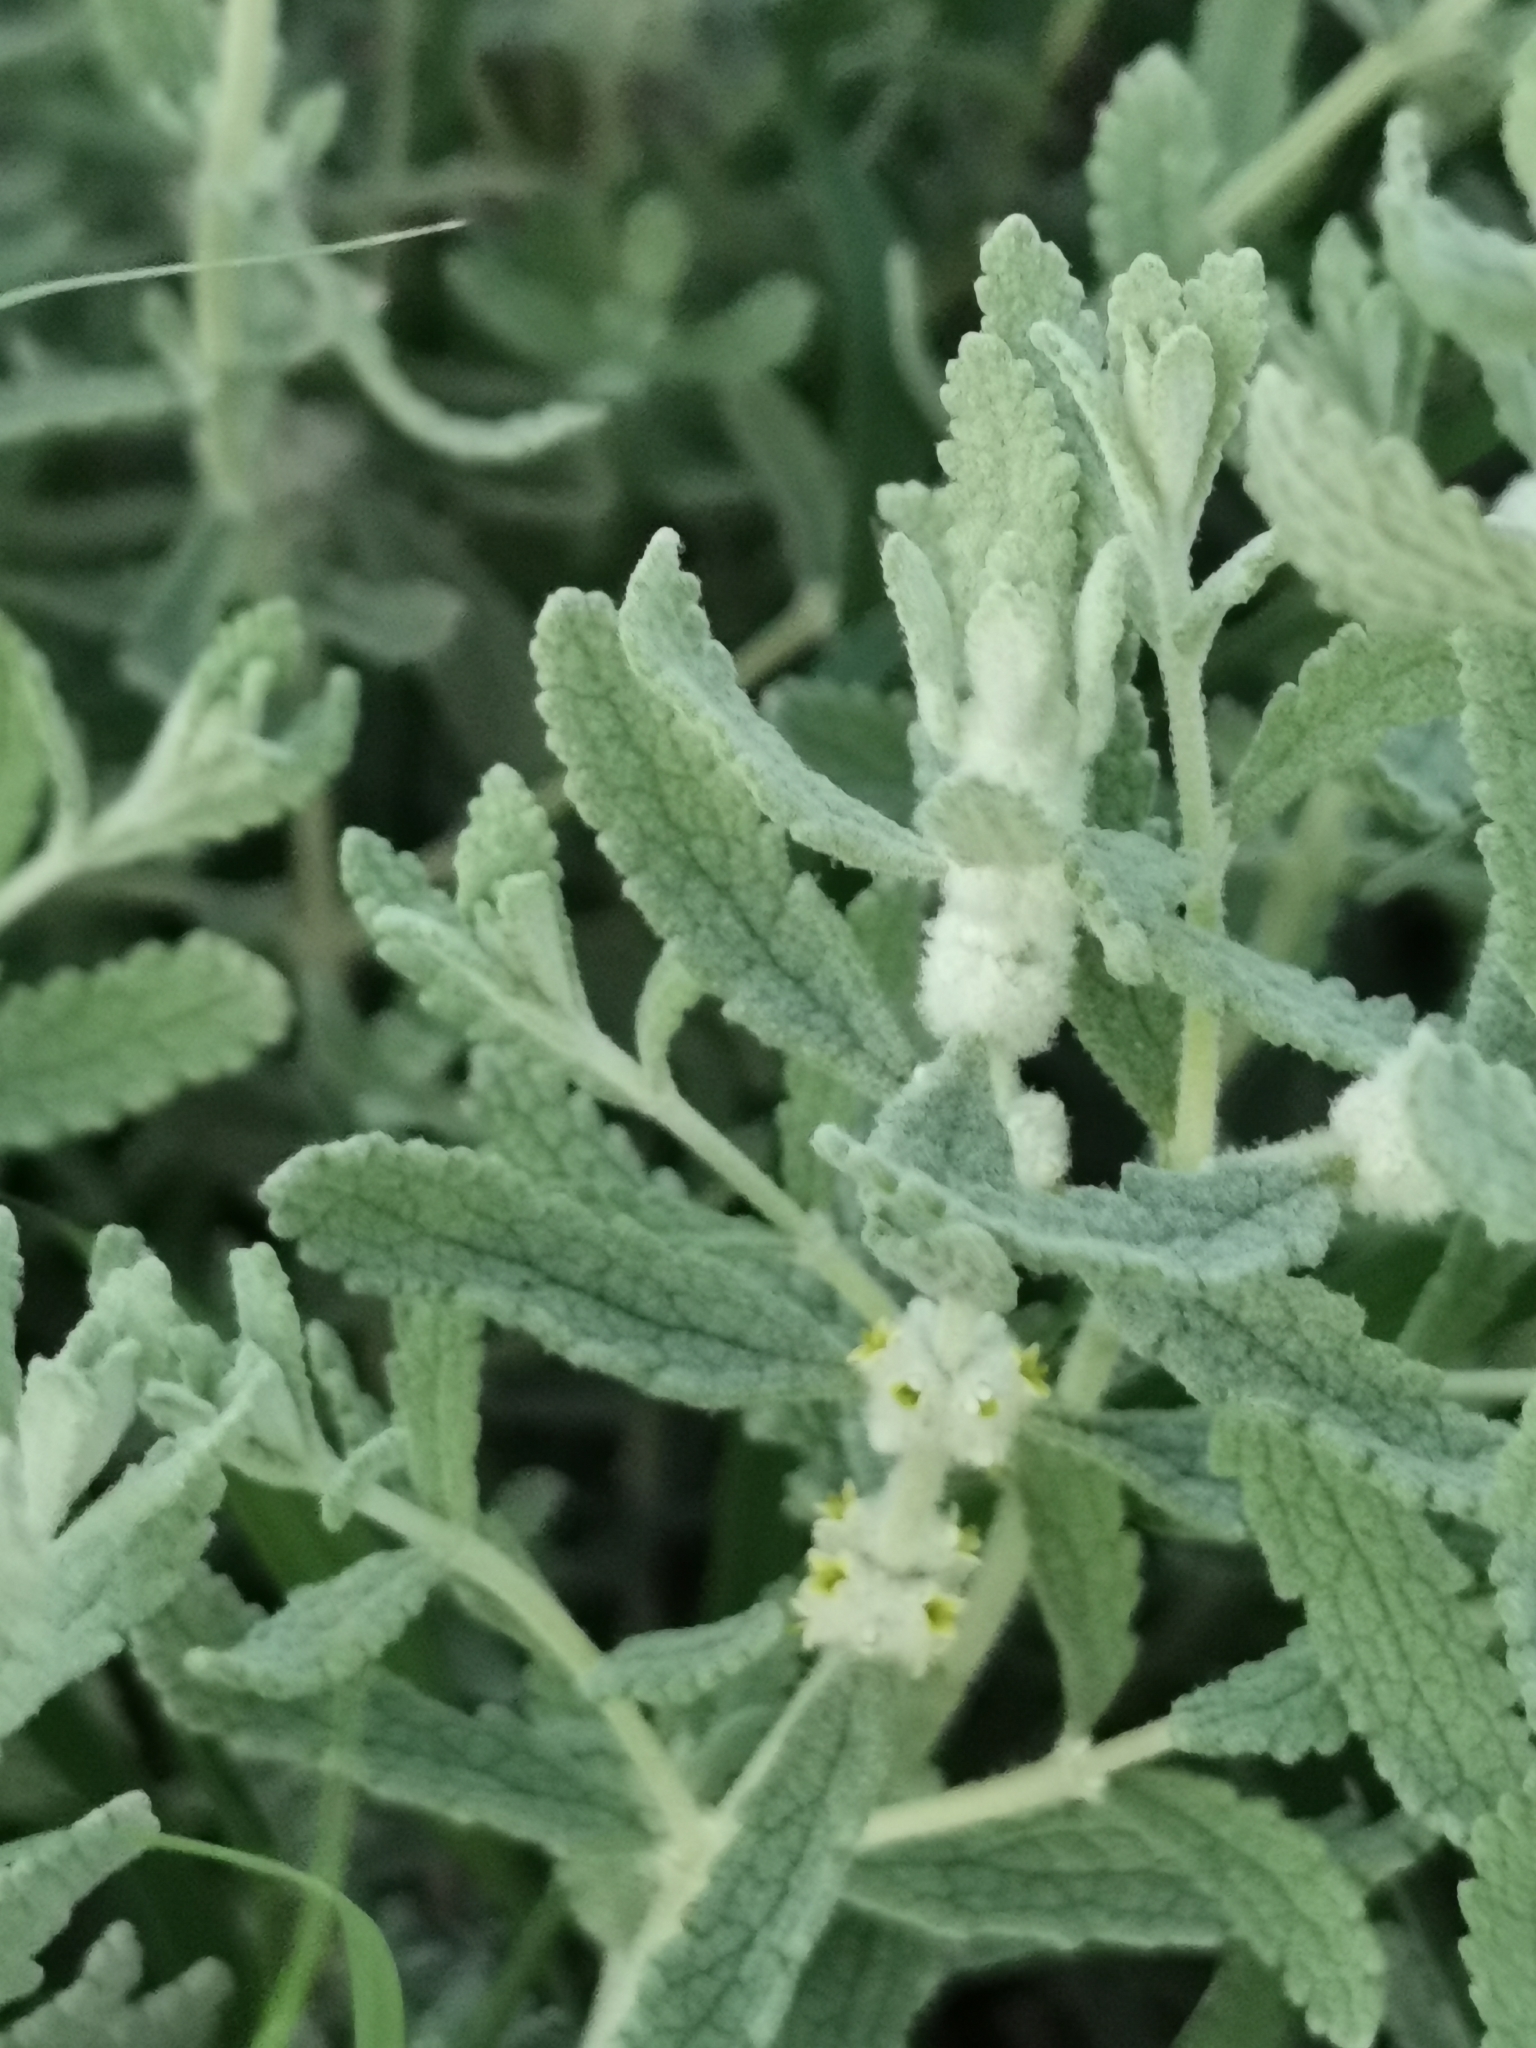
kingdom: Plantae
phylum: Tracheophyta
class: Magnoliopsida
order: Lamiales
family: Scrophulariaceae
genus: Buddleja
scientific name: Buddleja scordioides
